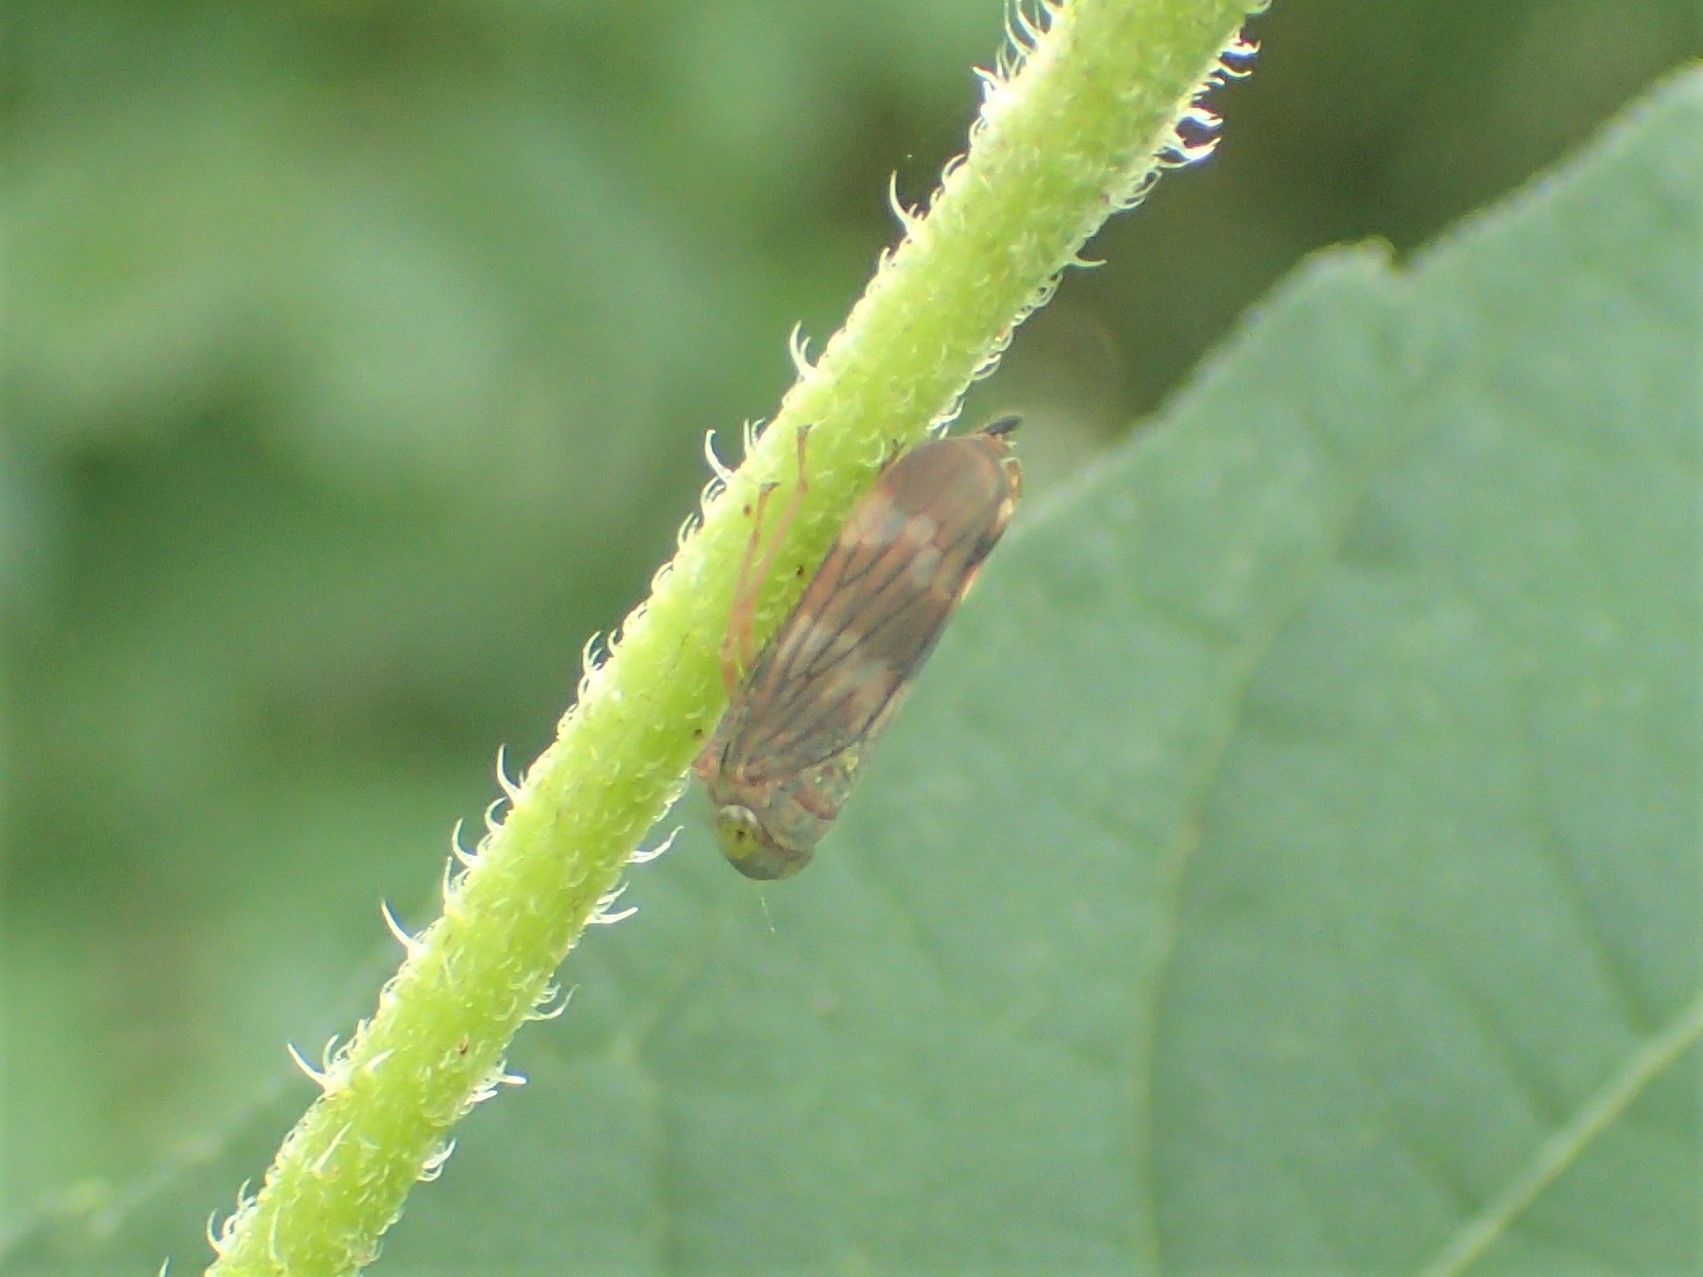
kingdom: Animalia
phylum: Arthropoda
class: Insecta
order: Hemiptera
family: Cicadellidae
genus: Jikradia
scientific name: Jikradia olitoria
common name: Coppery leafhopper
